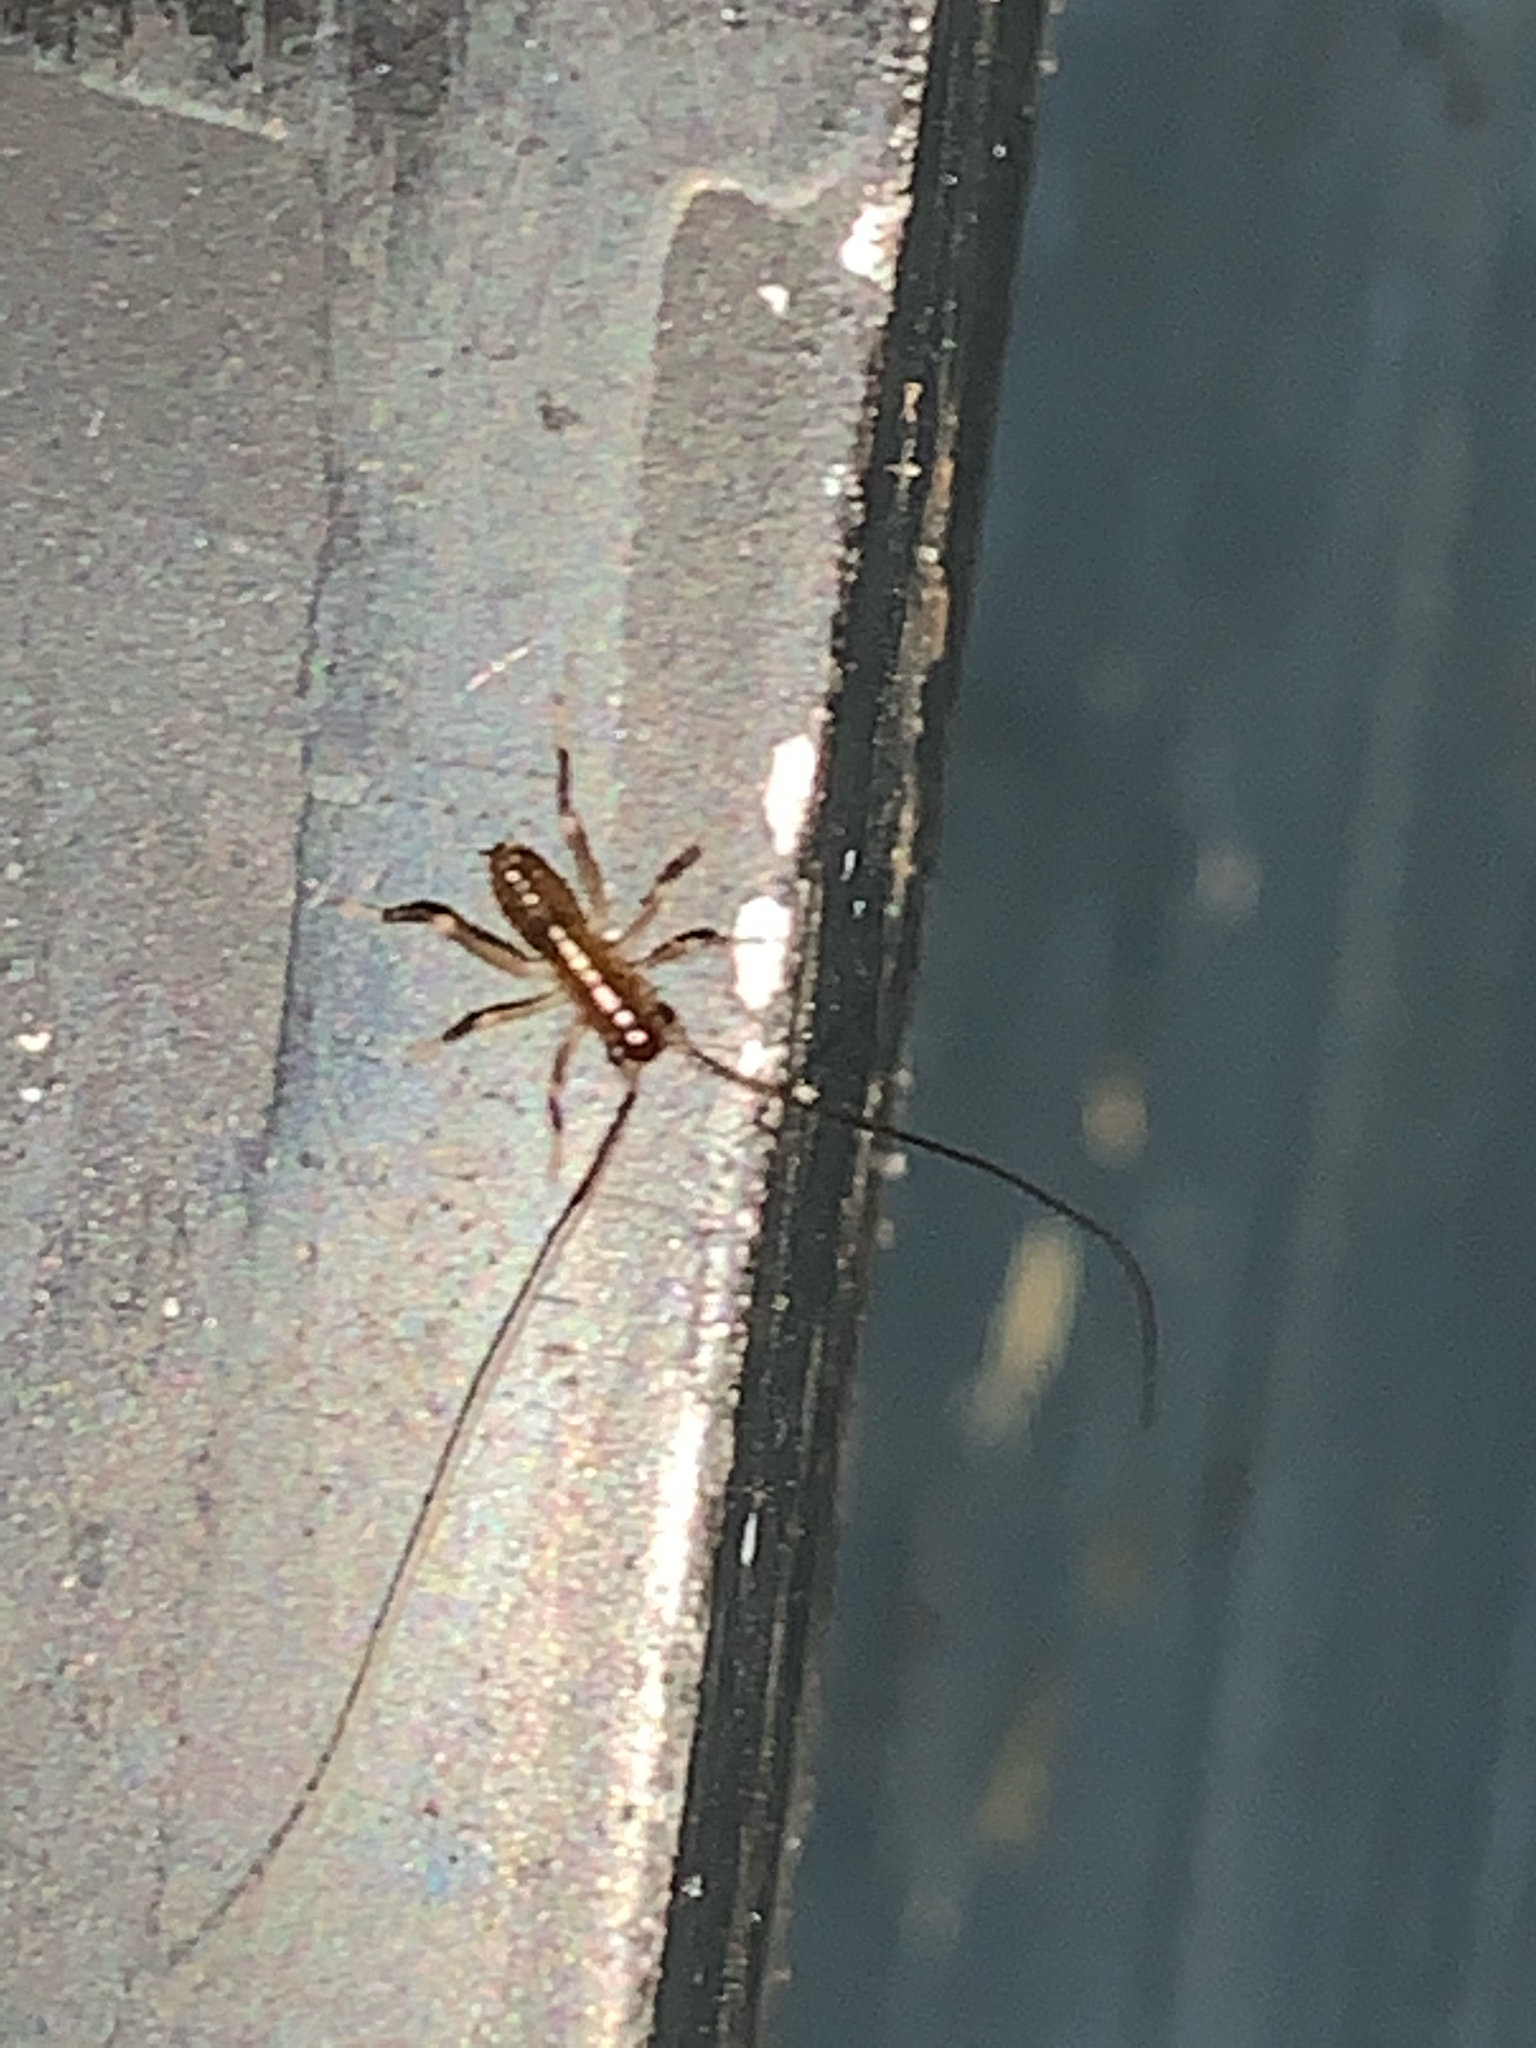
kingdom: Animalia
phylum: Arthropoda
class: Insecta
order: Orthoptera
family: Gryllacrididae
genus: Camptonotus
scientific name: Camptonotus carolinensis
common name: Carolina leaf-roller
